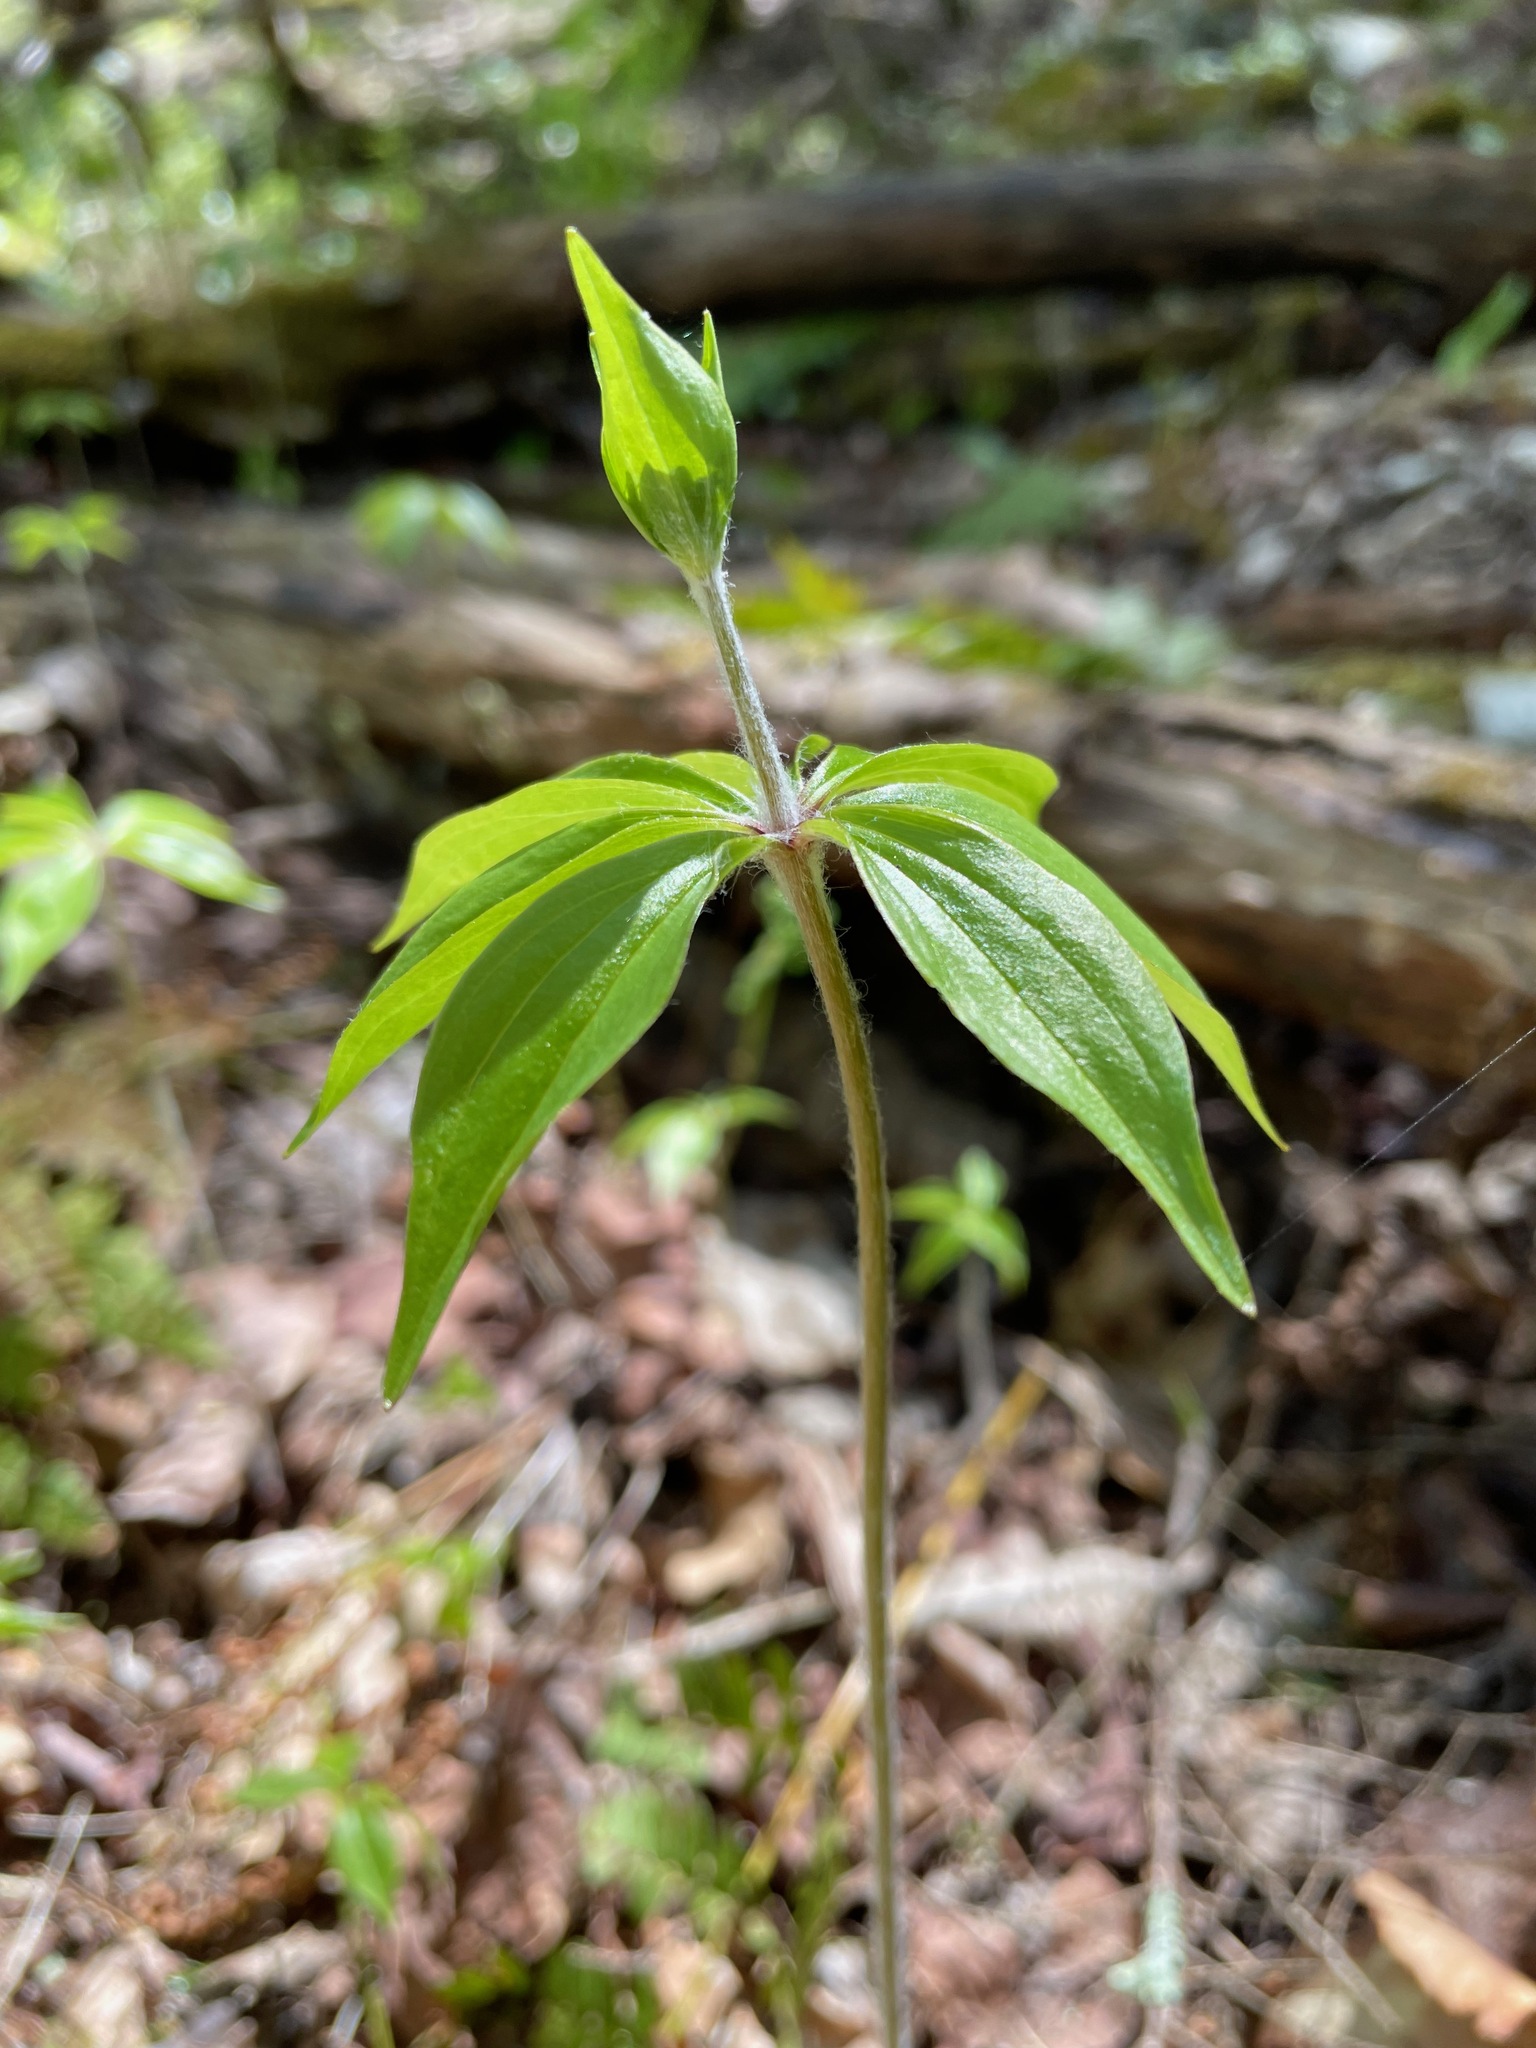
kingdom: Plantae
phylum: Tracheophyta
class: Liliopsida
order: Liliales
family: Liliaceae
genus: Medeola
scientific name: Medeola virginiana
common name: Indian cucumber-root
